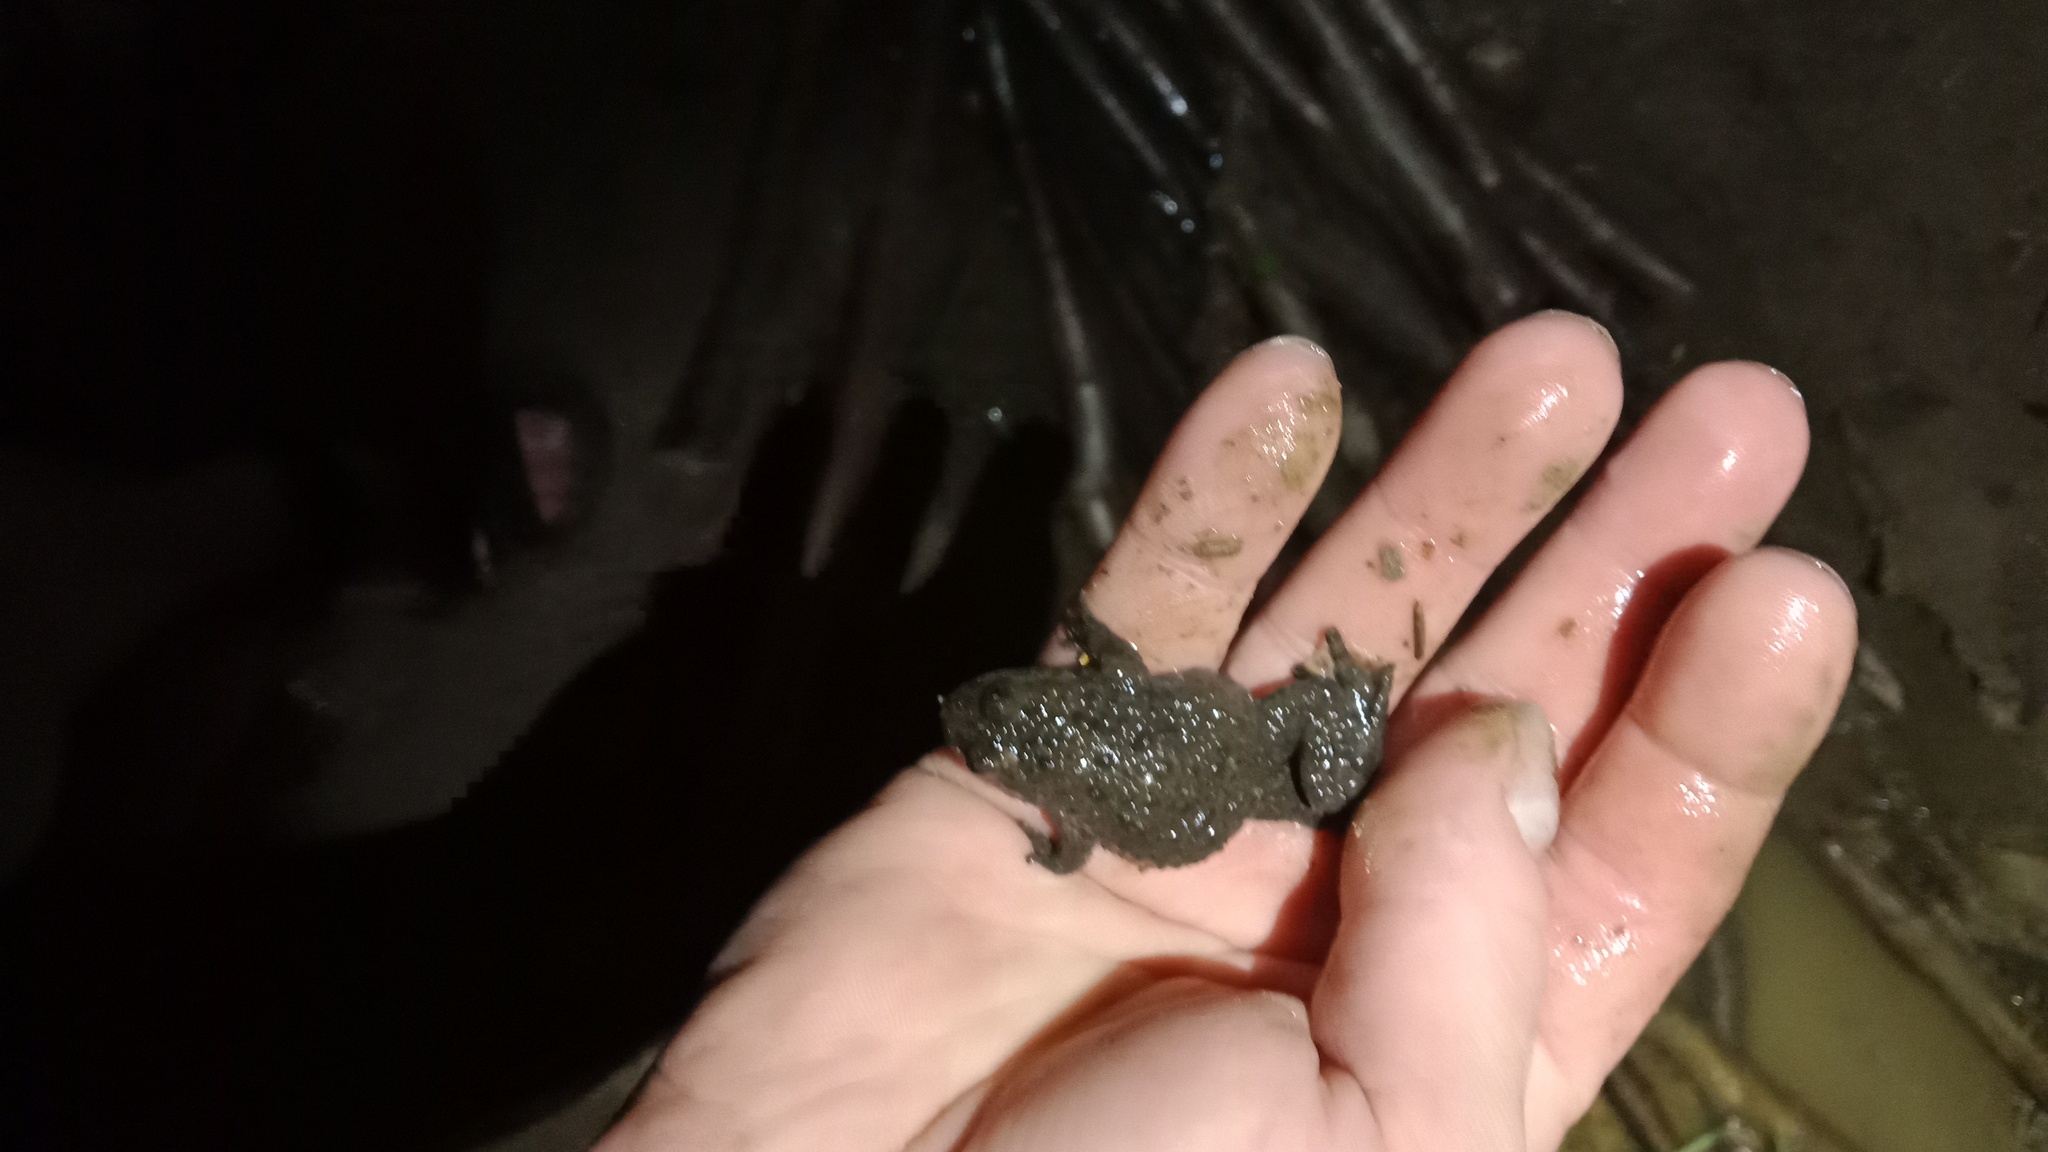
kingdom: Animalia
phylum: Chordata
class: Amphibia
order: Anura
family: Bombinatoridae
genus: Bombina
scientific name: Bombina variegata
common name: Yellow-bellied toad
